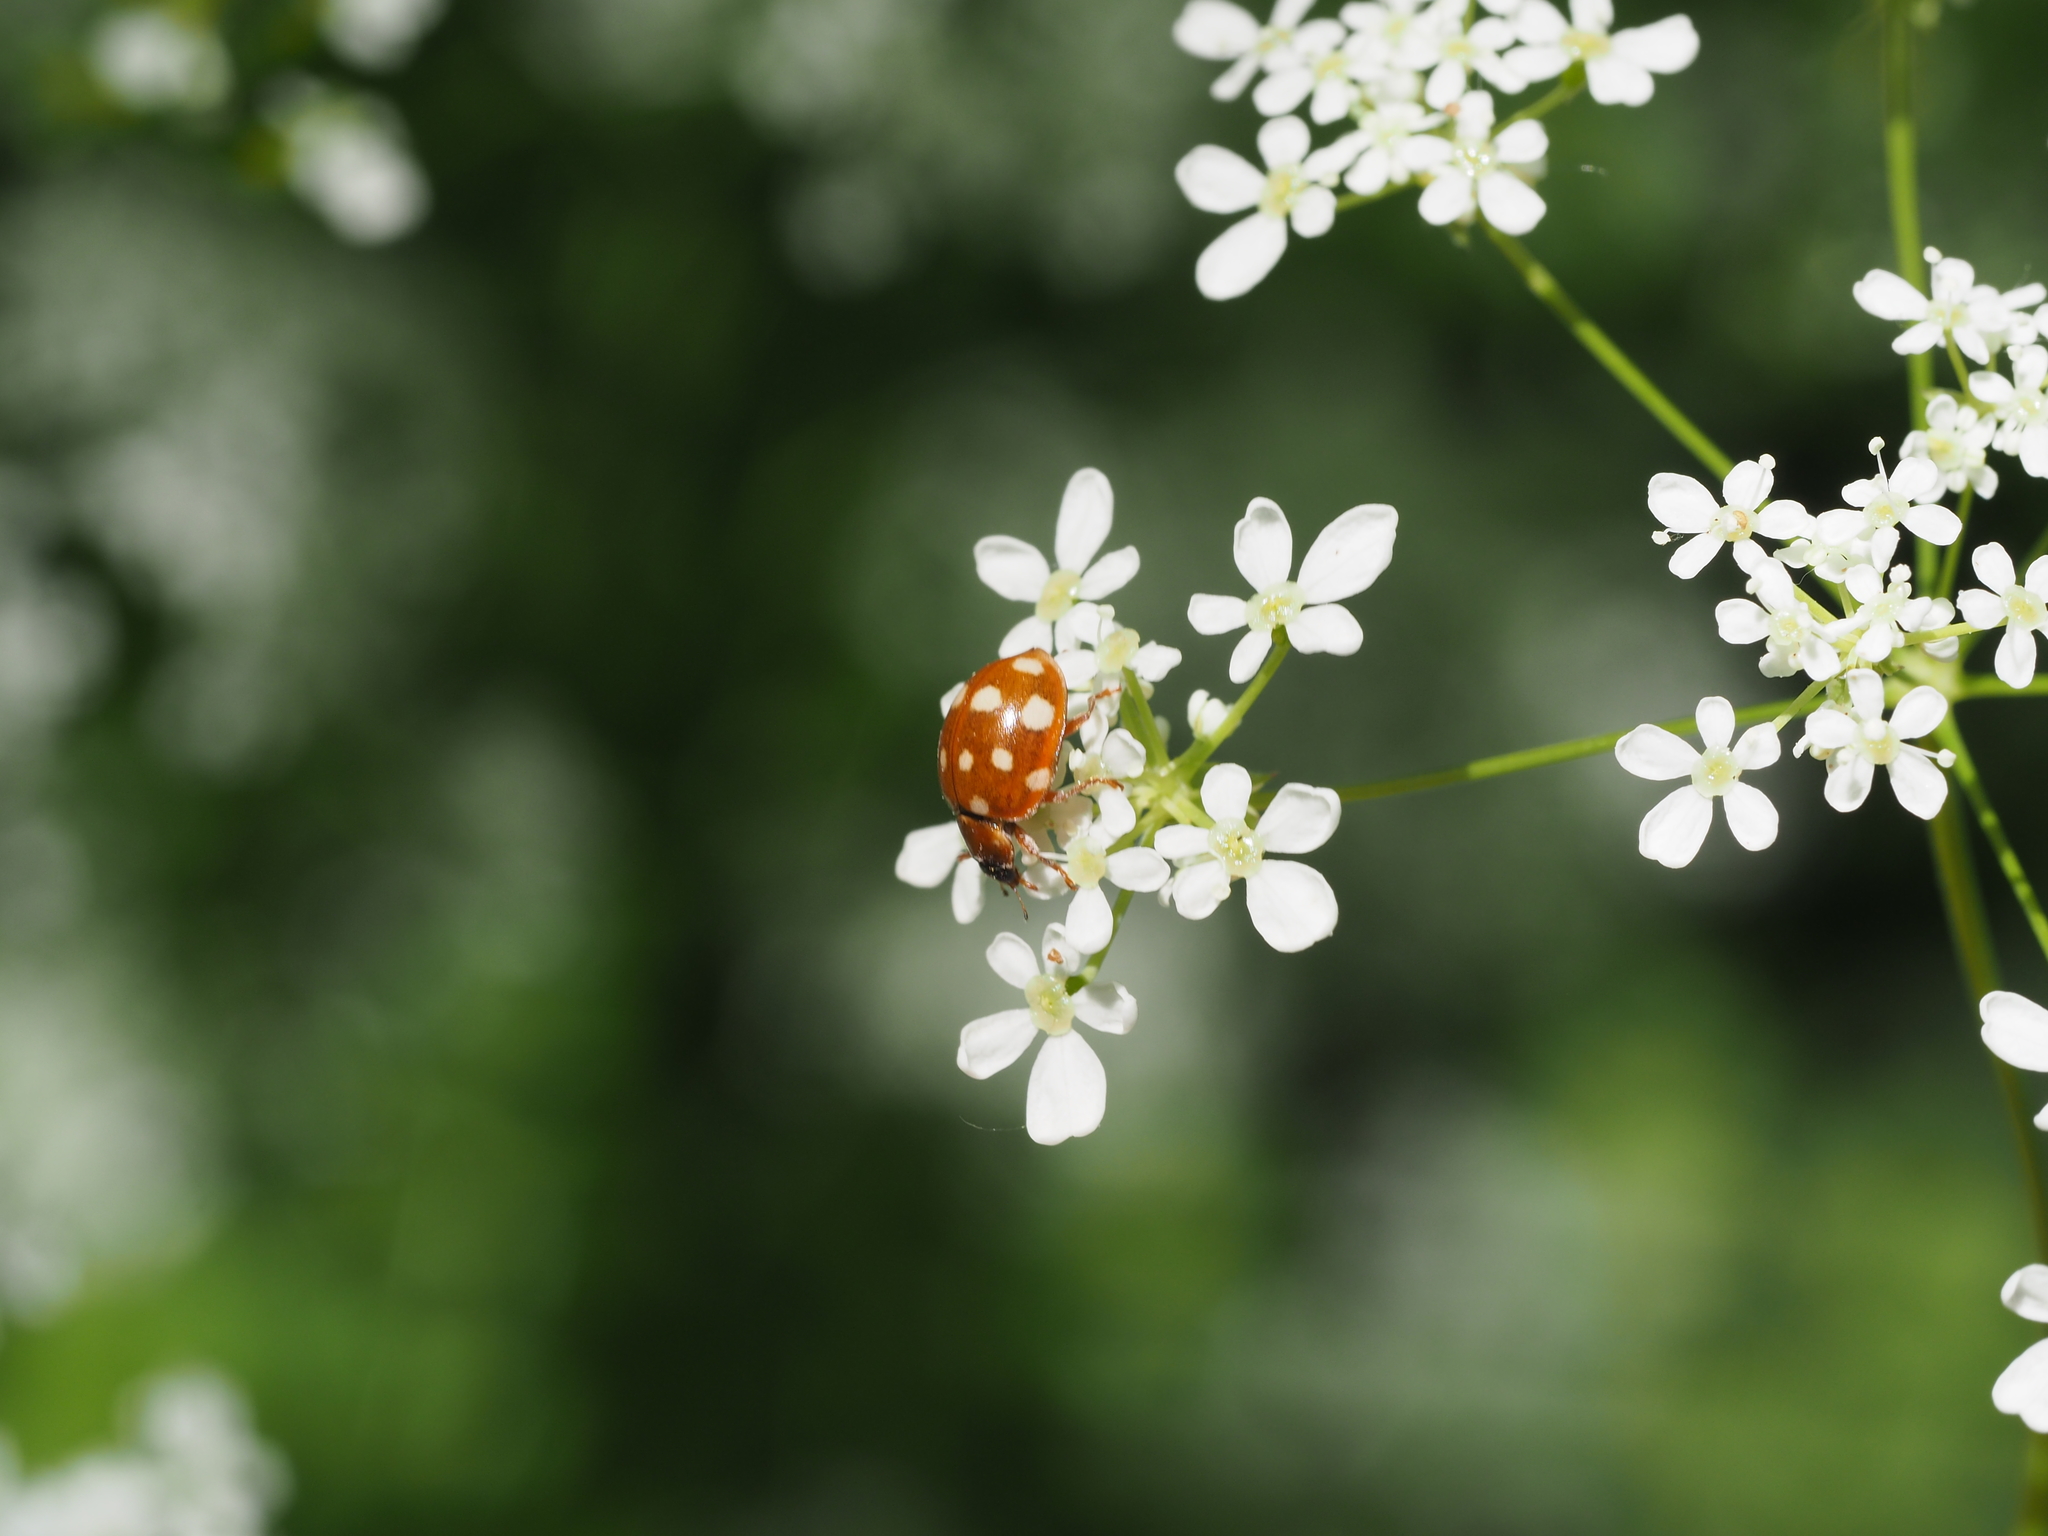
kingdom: Animalia
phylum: Arthropoda
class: Insecta
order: Coleoptera
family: Coccinellidae
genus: Calvia
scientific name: Calvia quatuordecimguttata
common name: Cream-spot ladybird
